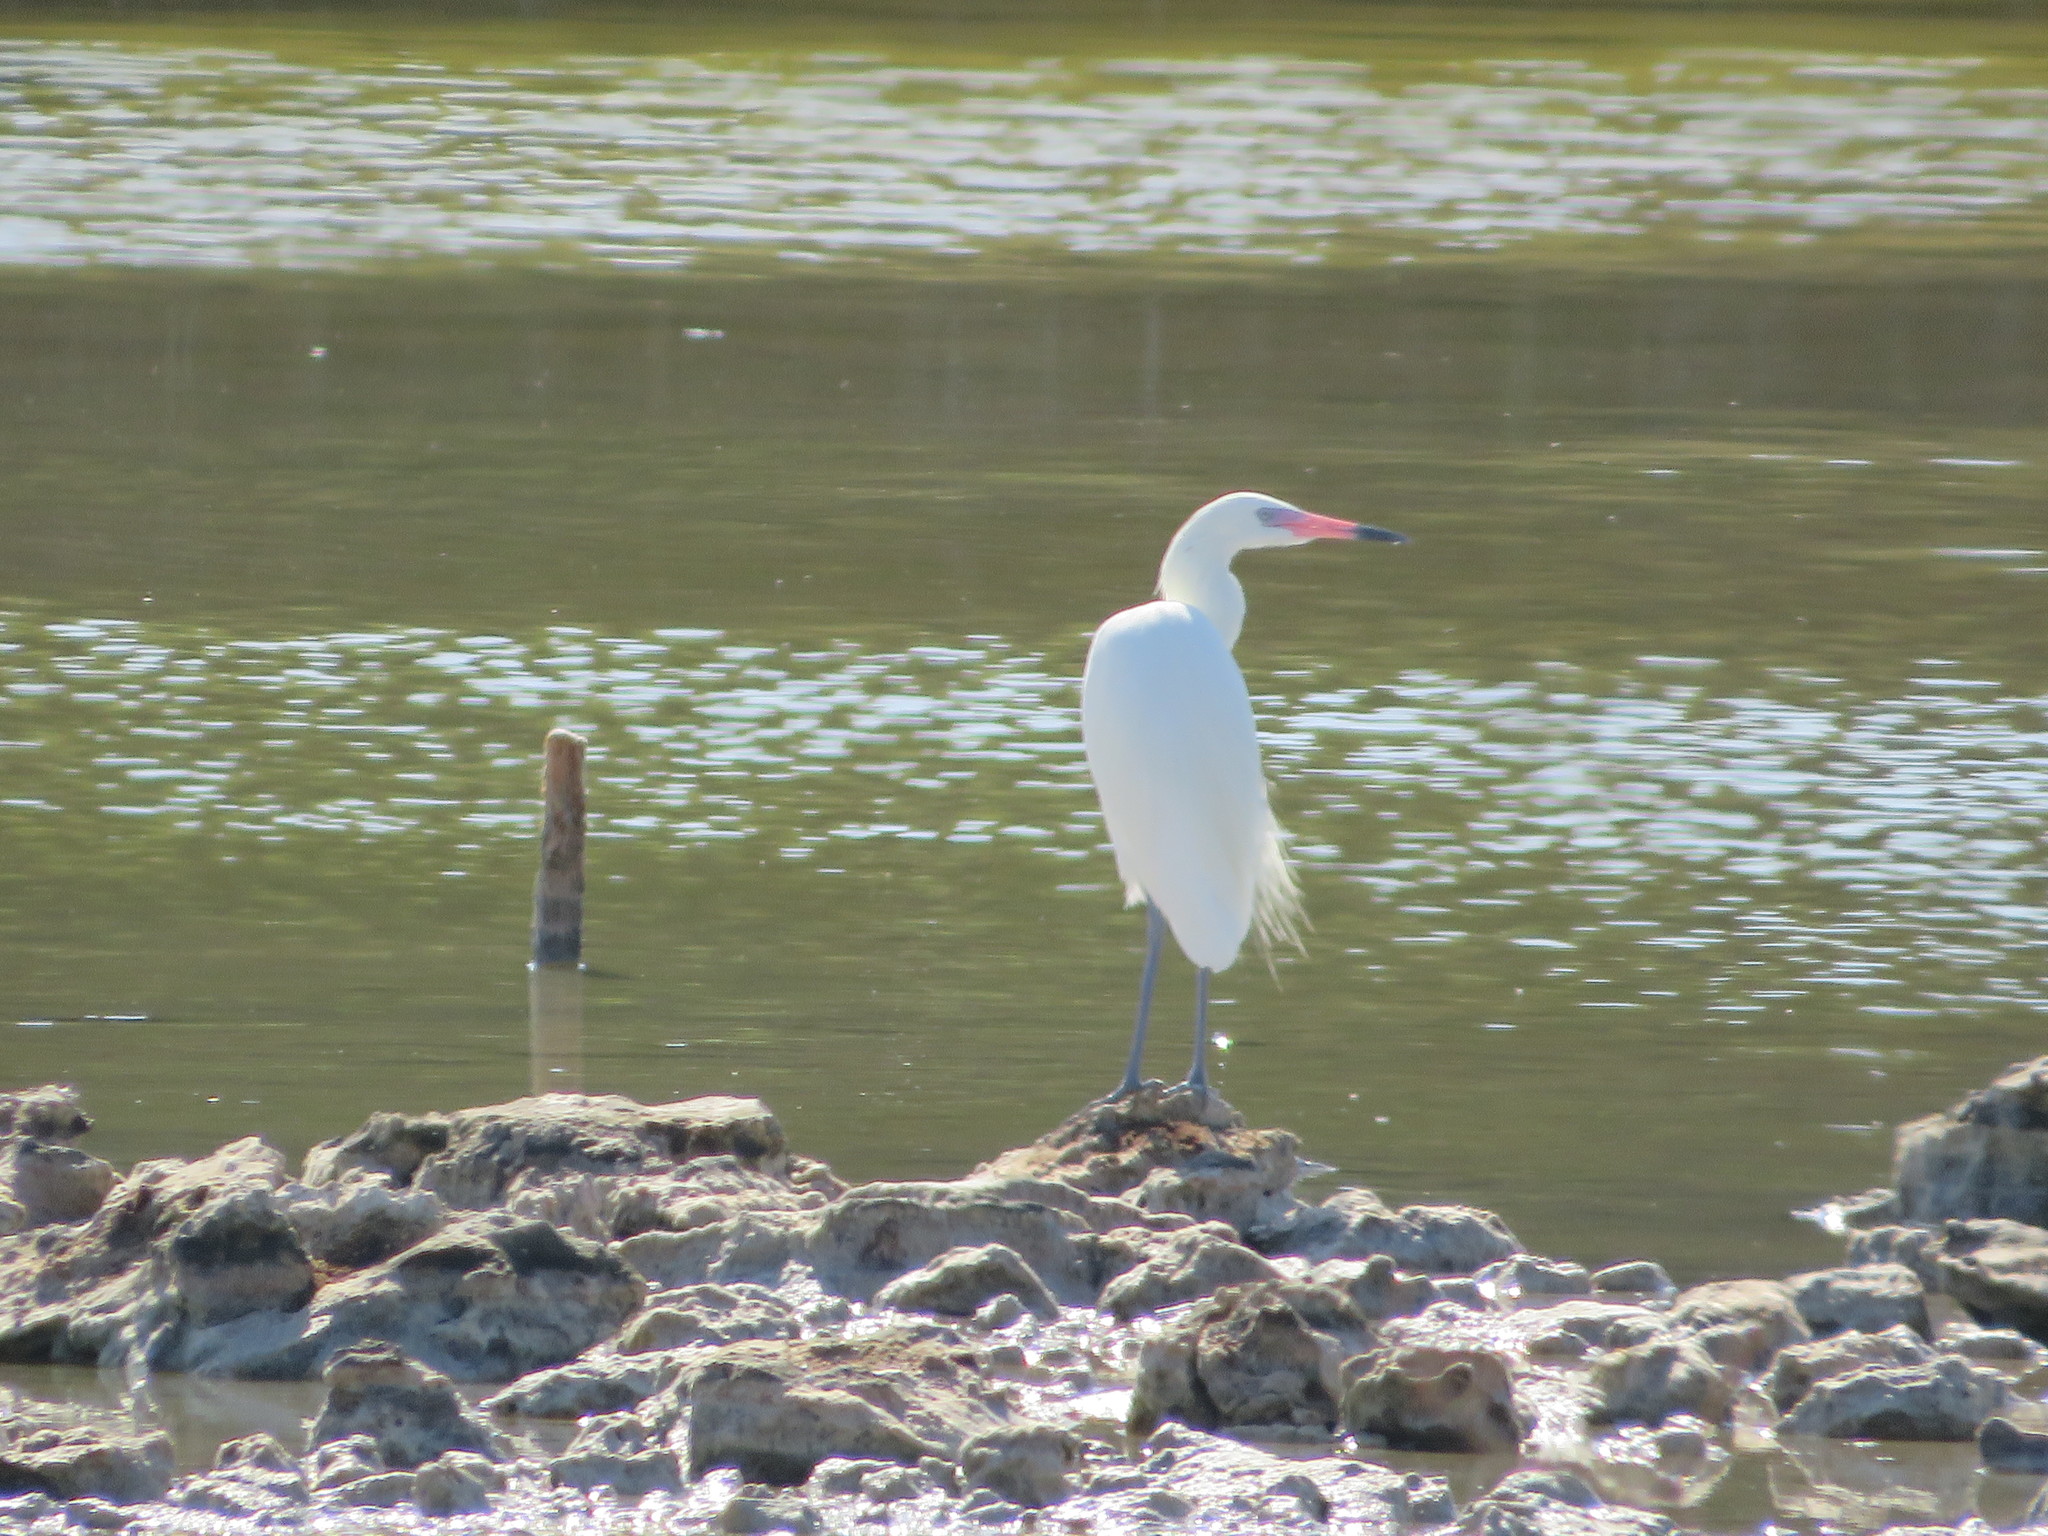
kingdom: Animalia
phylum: Chordata
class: Aves
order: Pelecaniformes
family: Ardeidae
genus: Egretta
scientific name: Egretta rufescens
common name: Reddish egret
